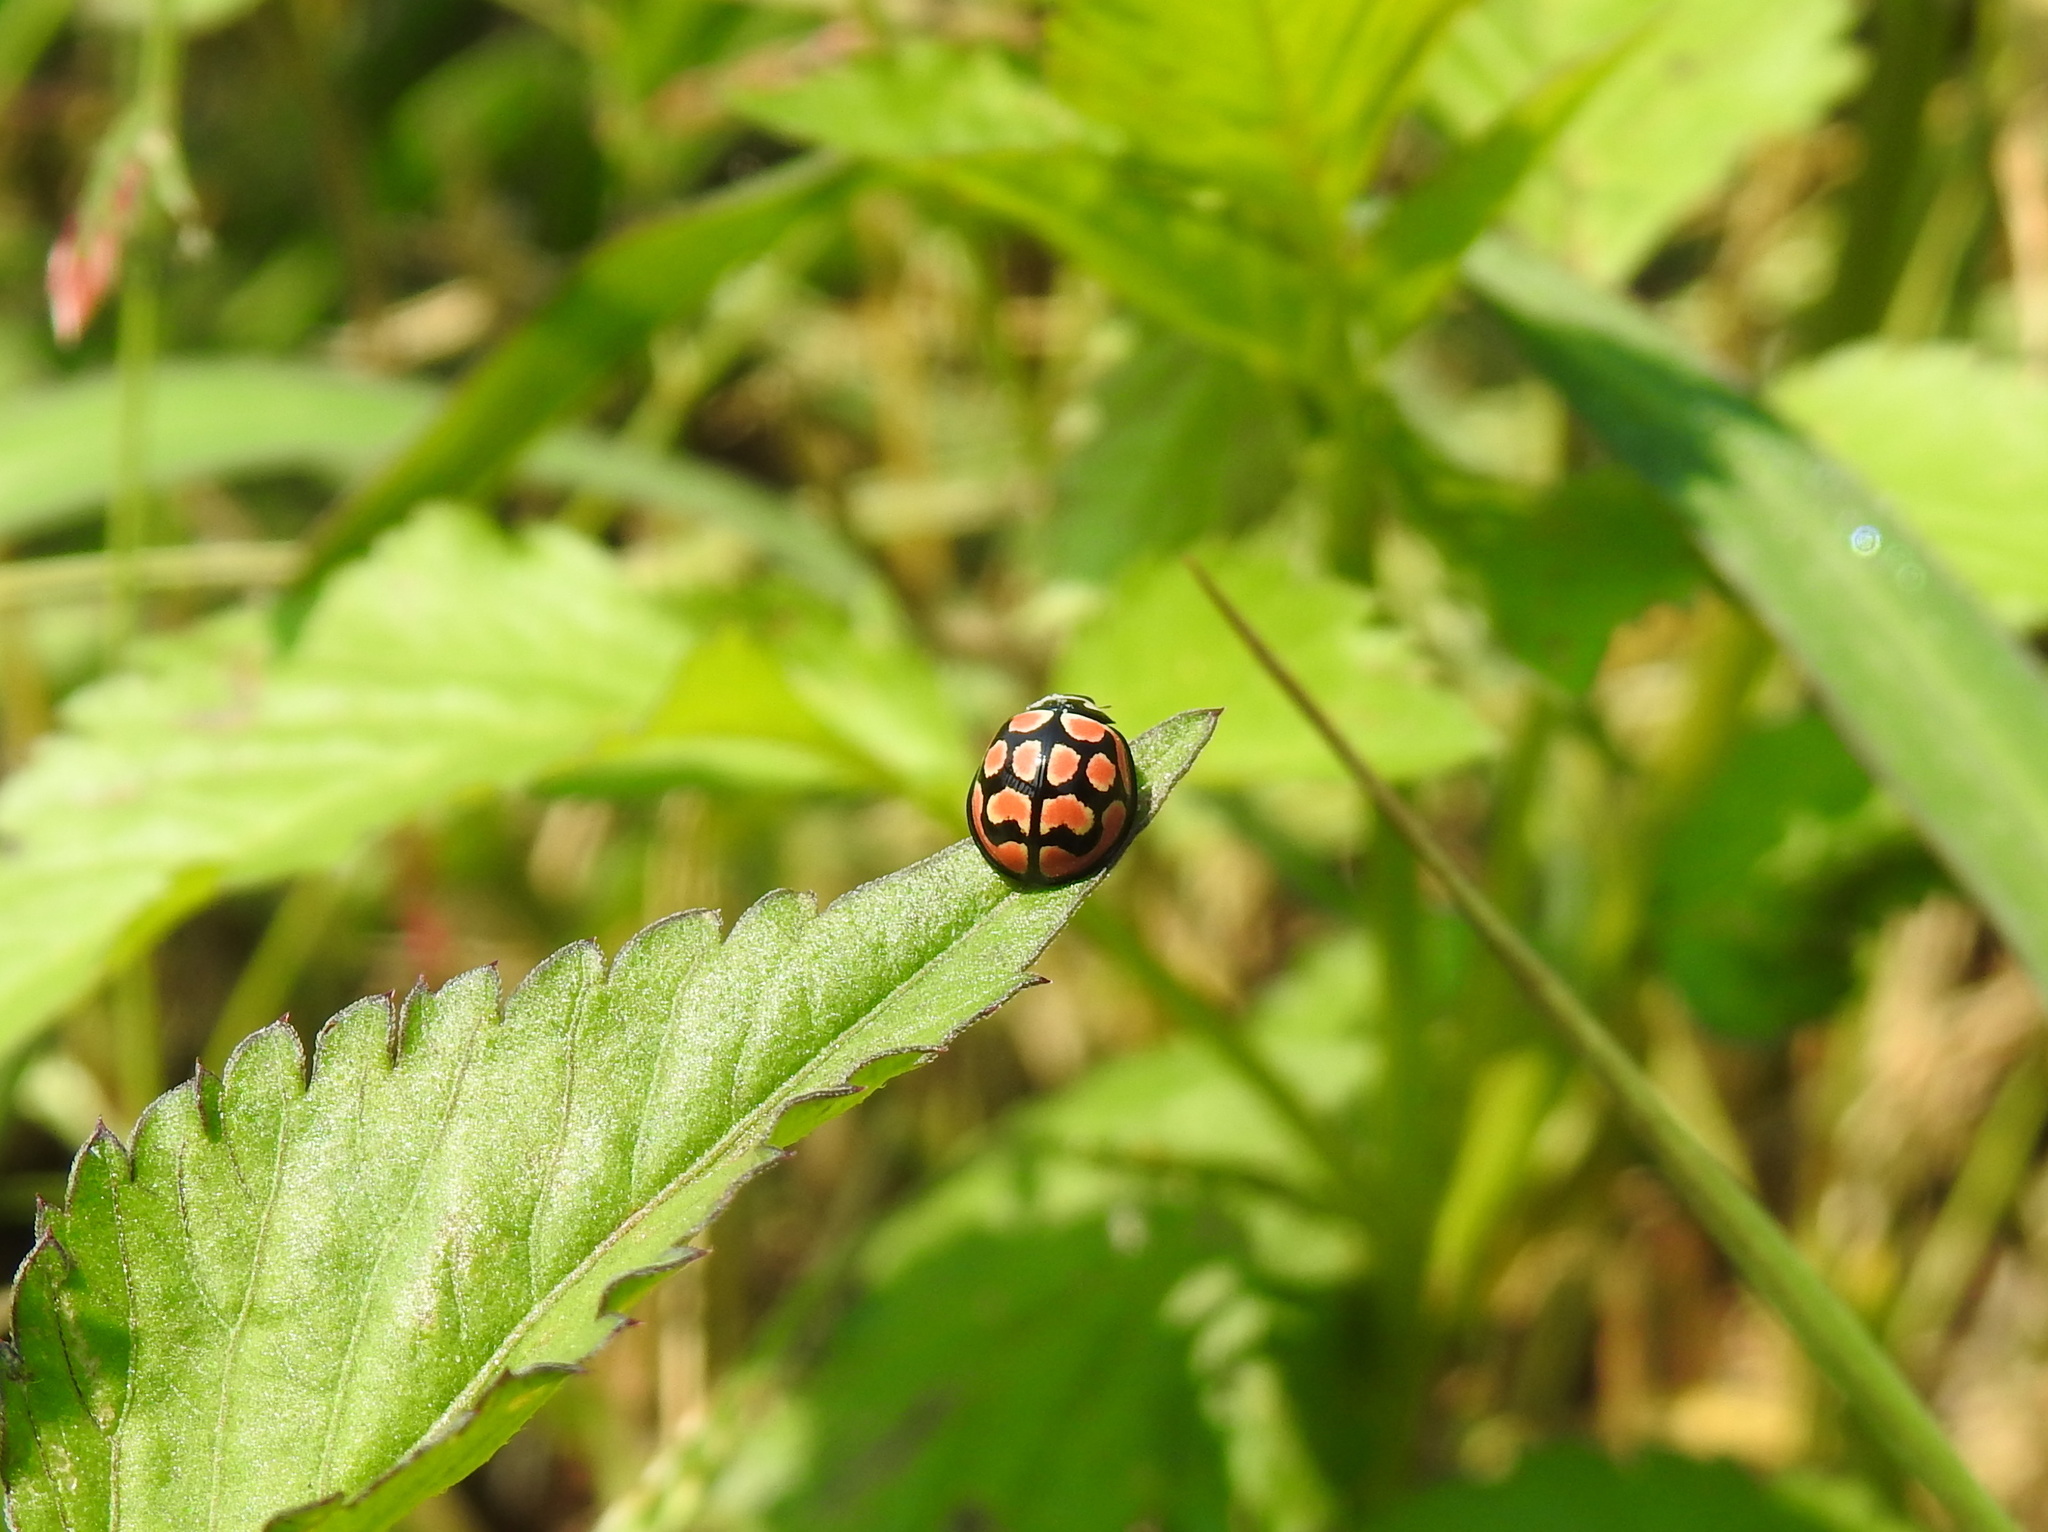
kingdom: Animalia
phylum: Arthropoda
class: Insecta
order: Coleoptera
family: Coccinellidae
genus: Cheilomenes
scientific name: Cheilomenes lunata
